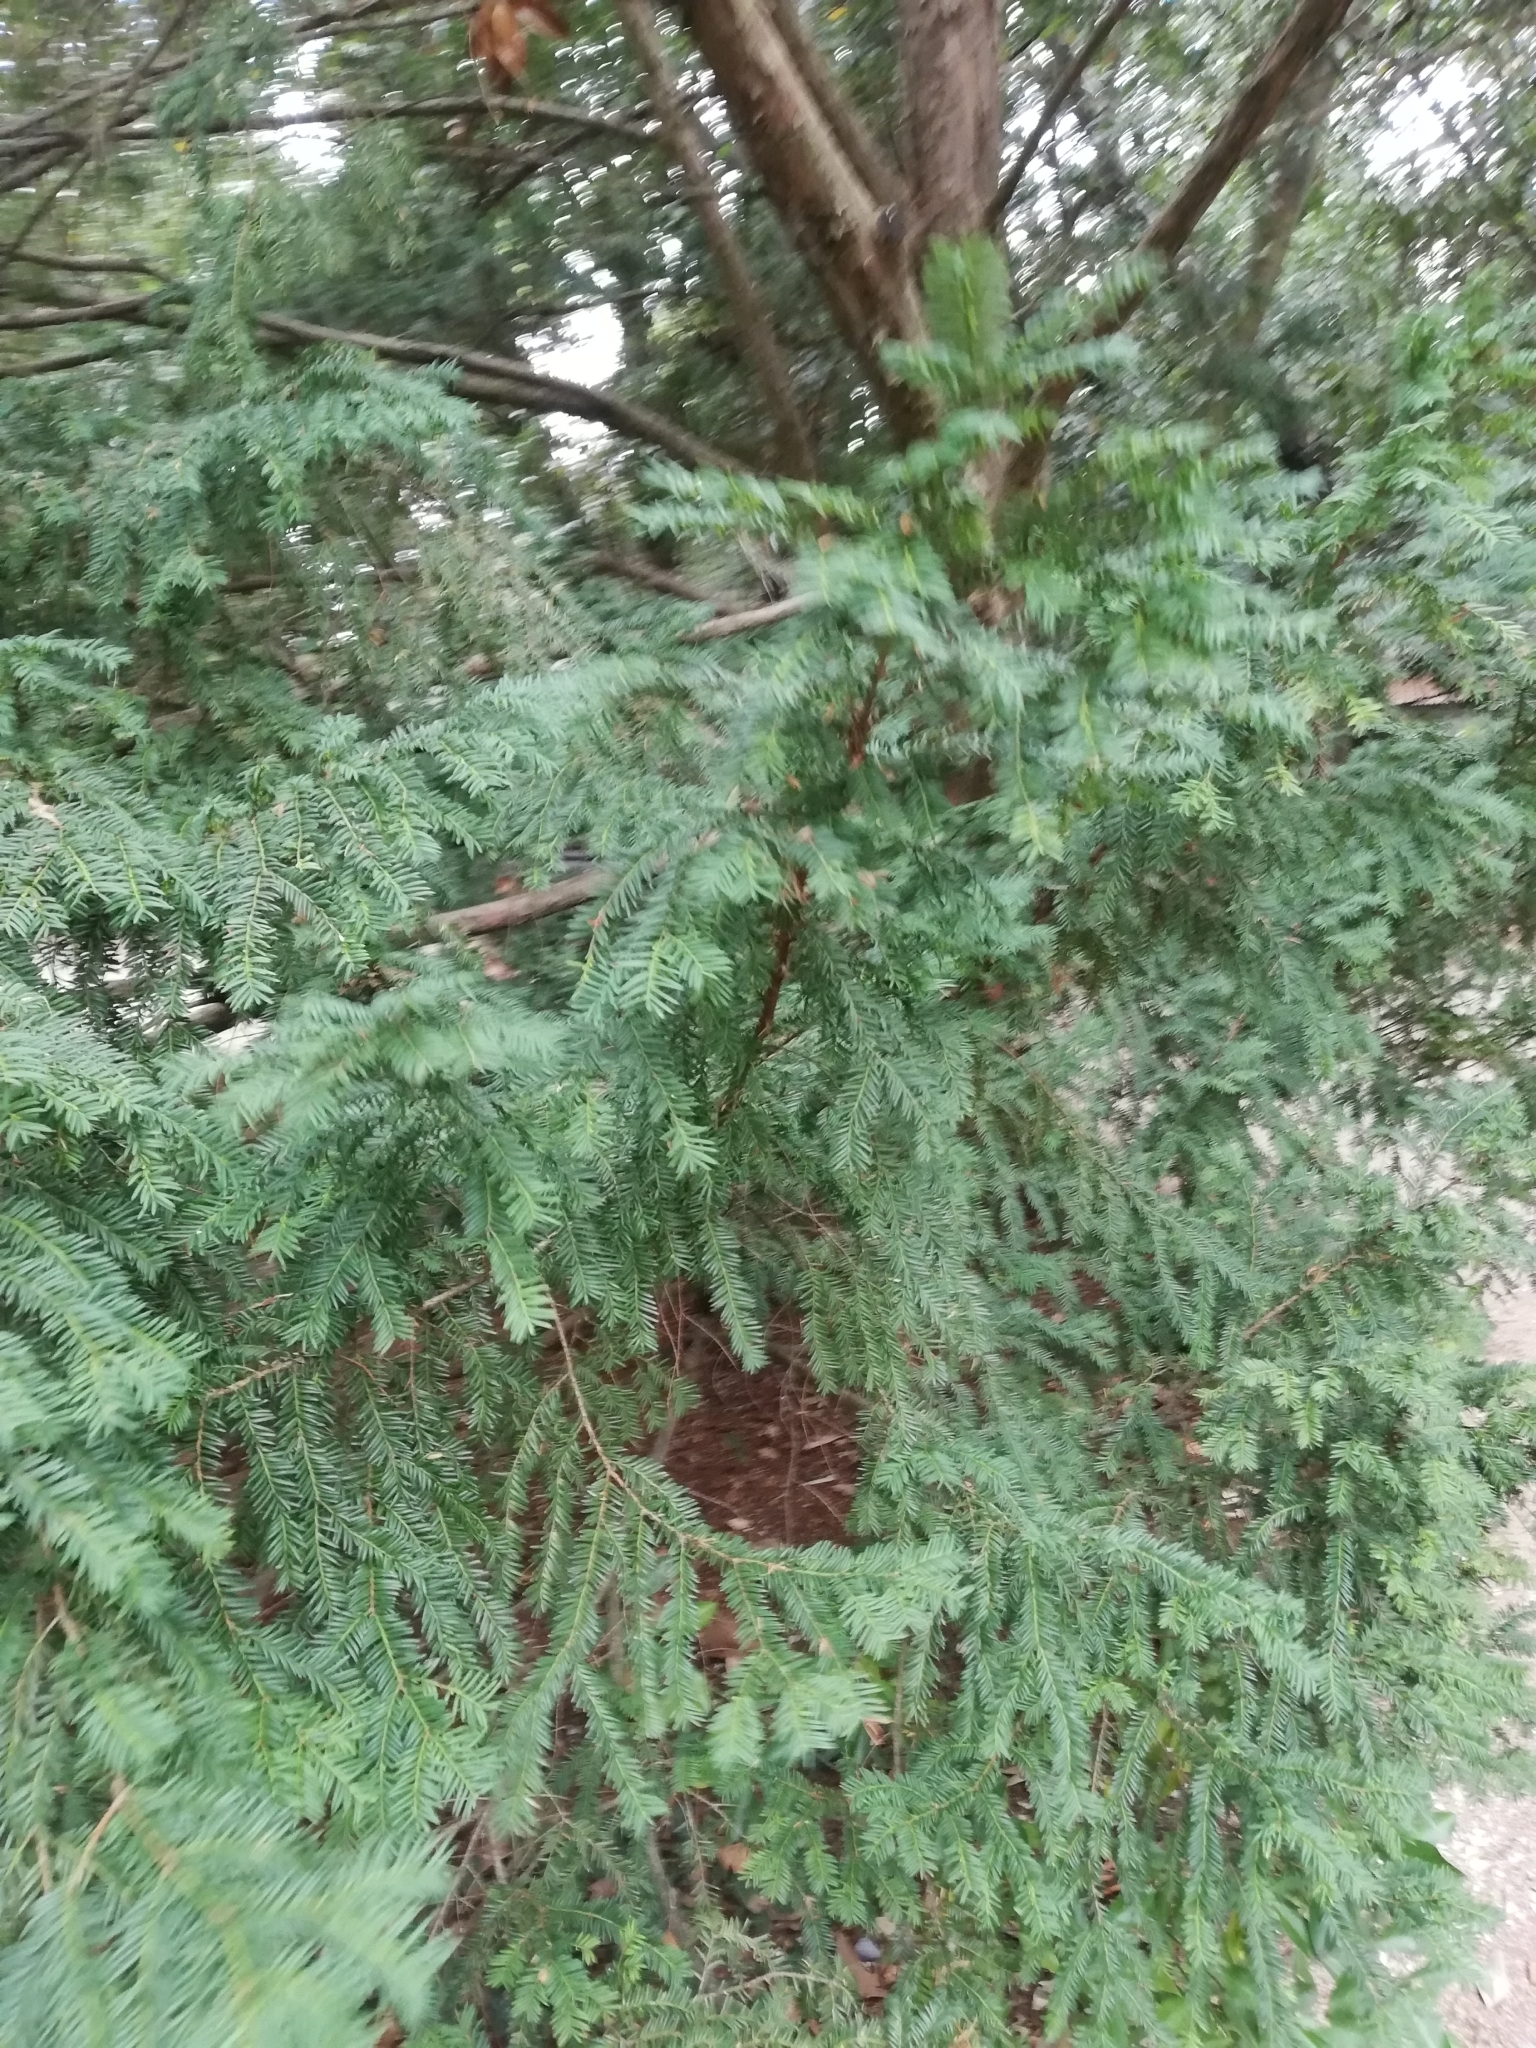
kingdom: Plantae
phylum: Tracheophyta
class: Pinopsida
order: Pinales
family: Taxaceae
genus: Taxus
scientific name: Taxus baccata
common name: Yew
